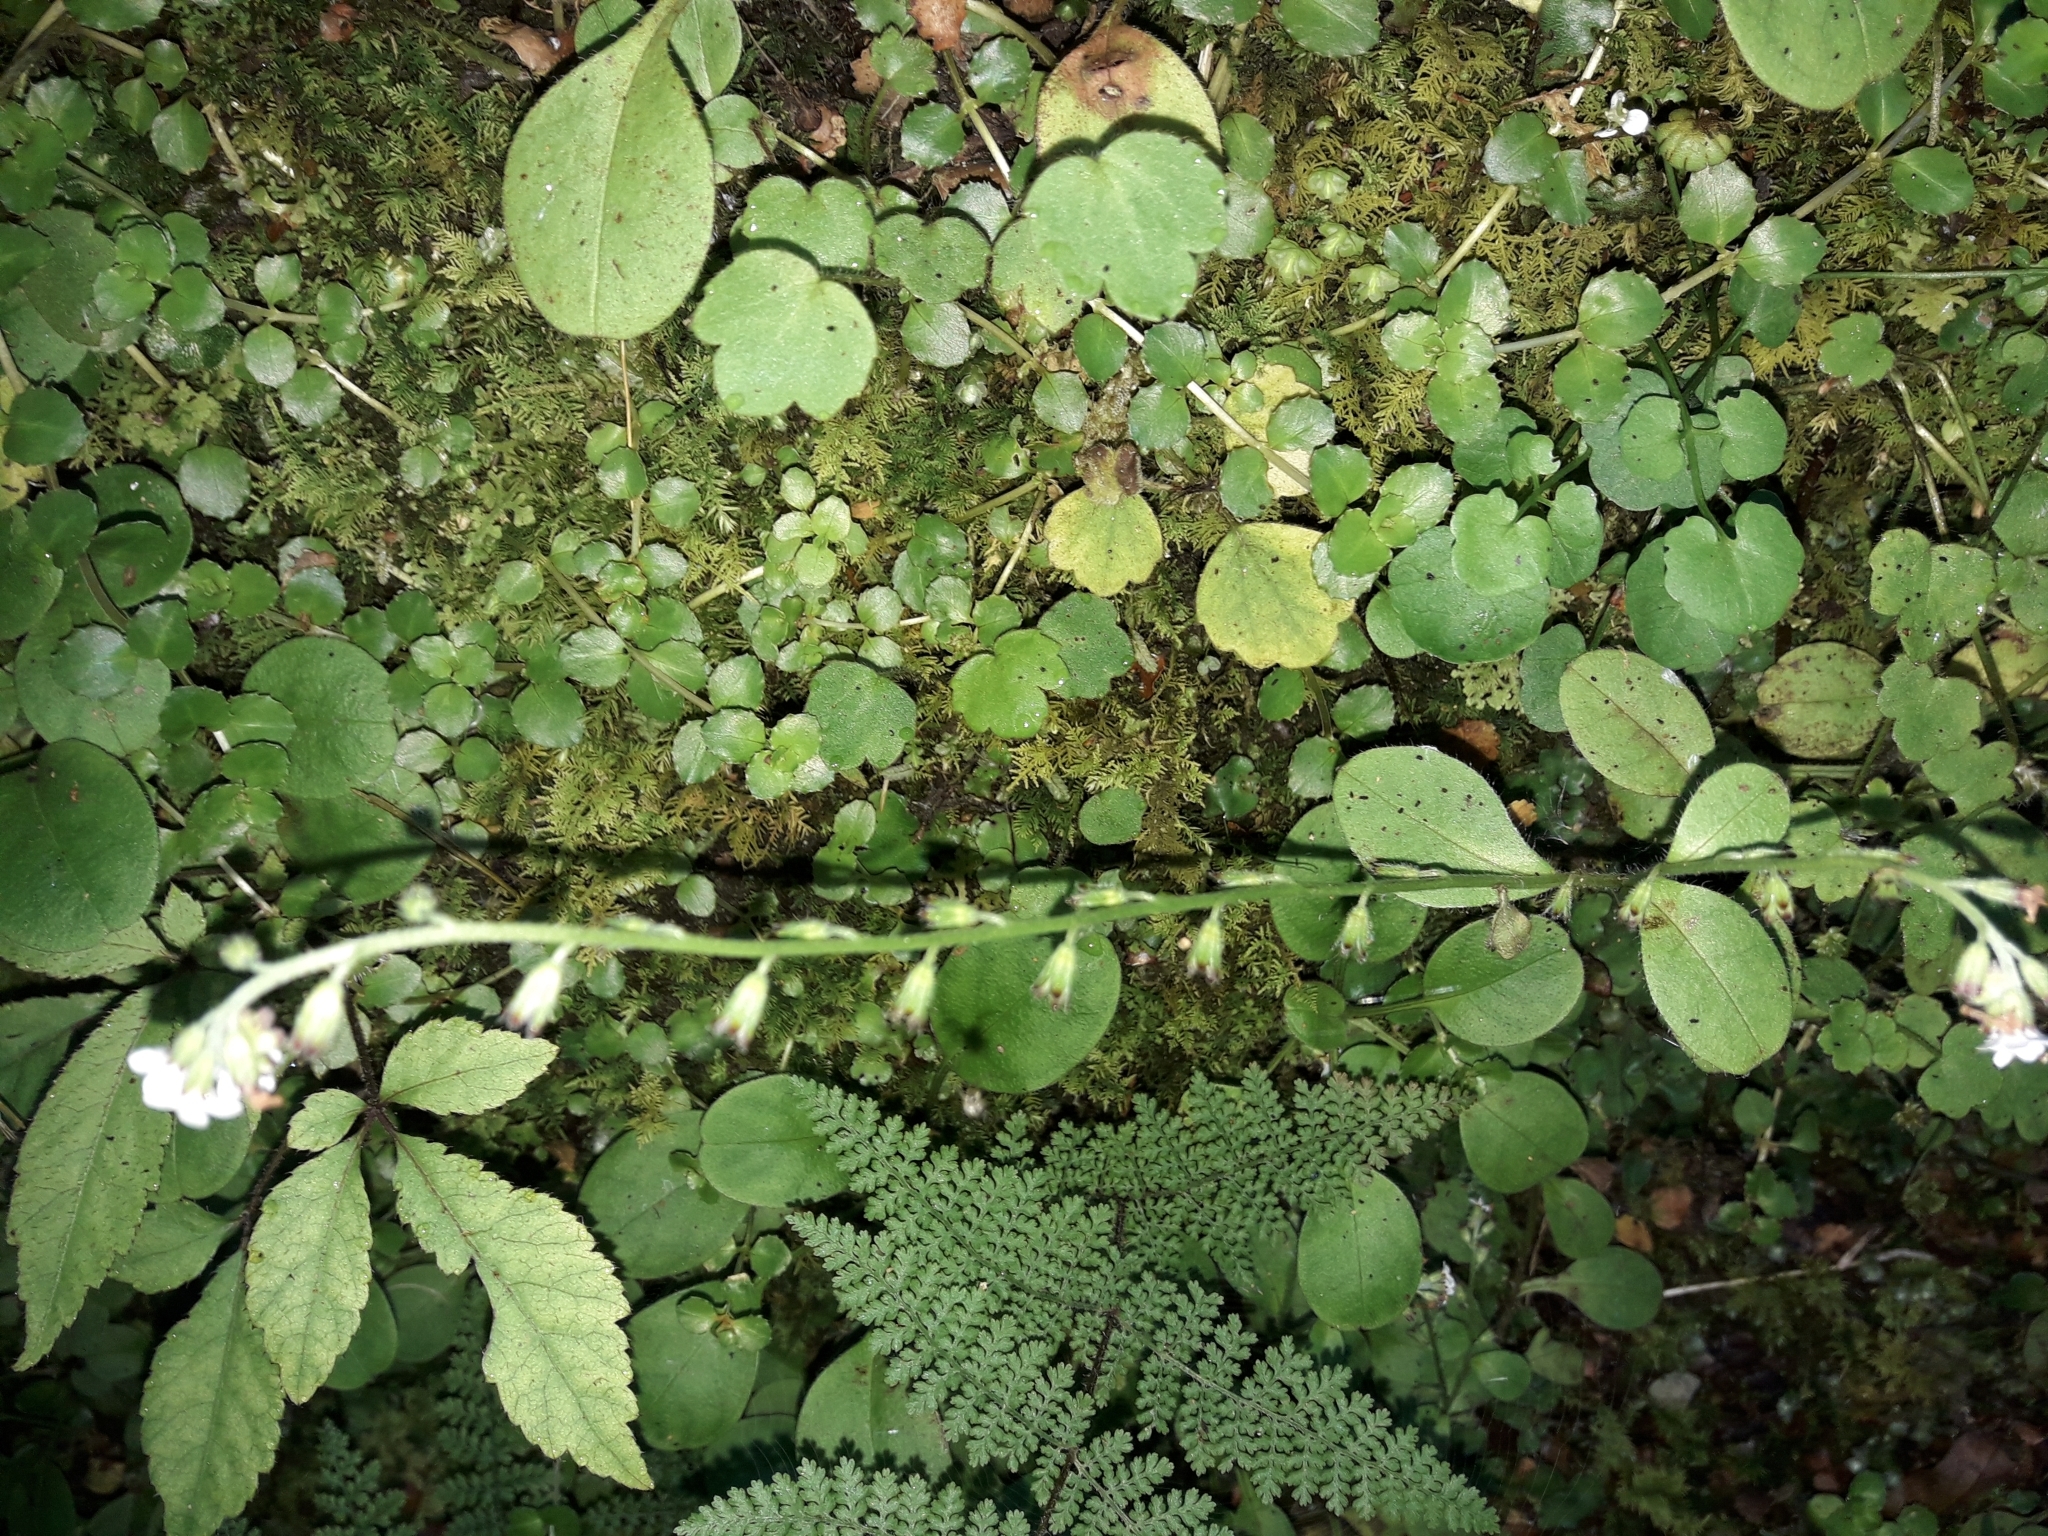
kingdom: Plantae
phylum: Tracheophyta
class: Magnoliopsida
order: Boraginales
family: Boraginaceae
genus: Myosotis
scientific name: Myosotis forsteri
